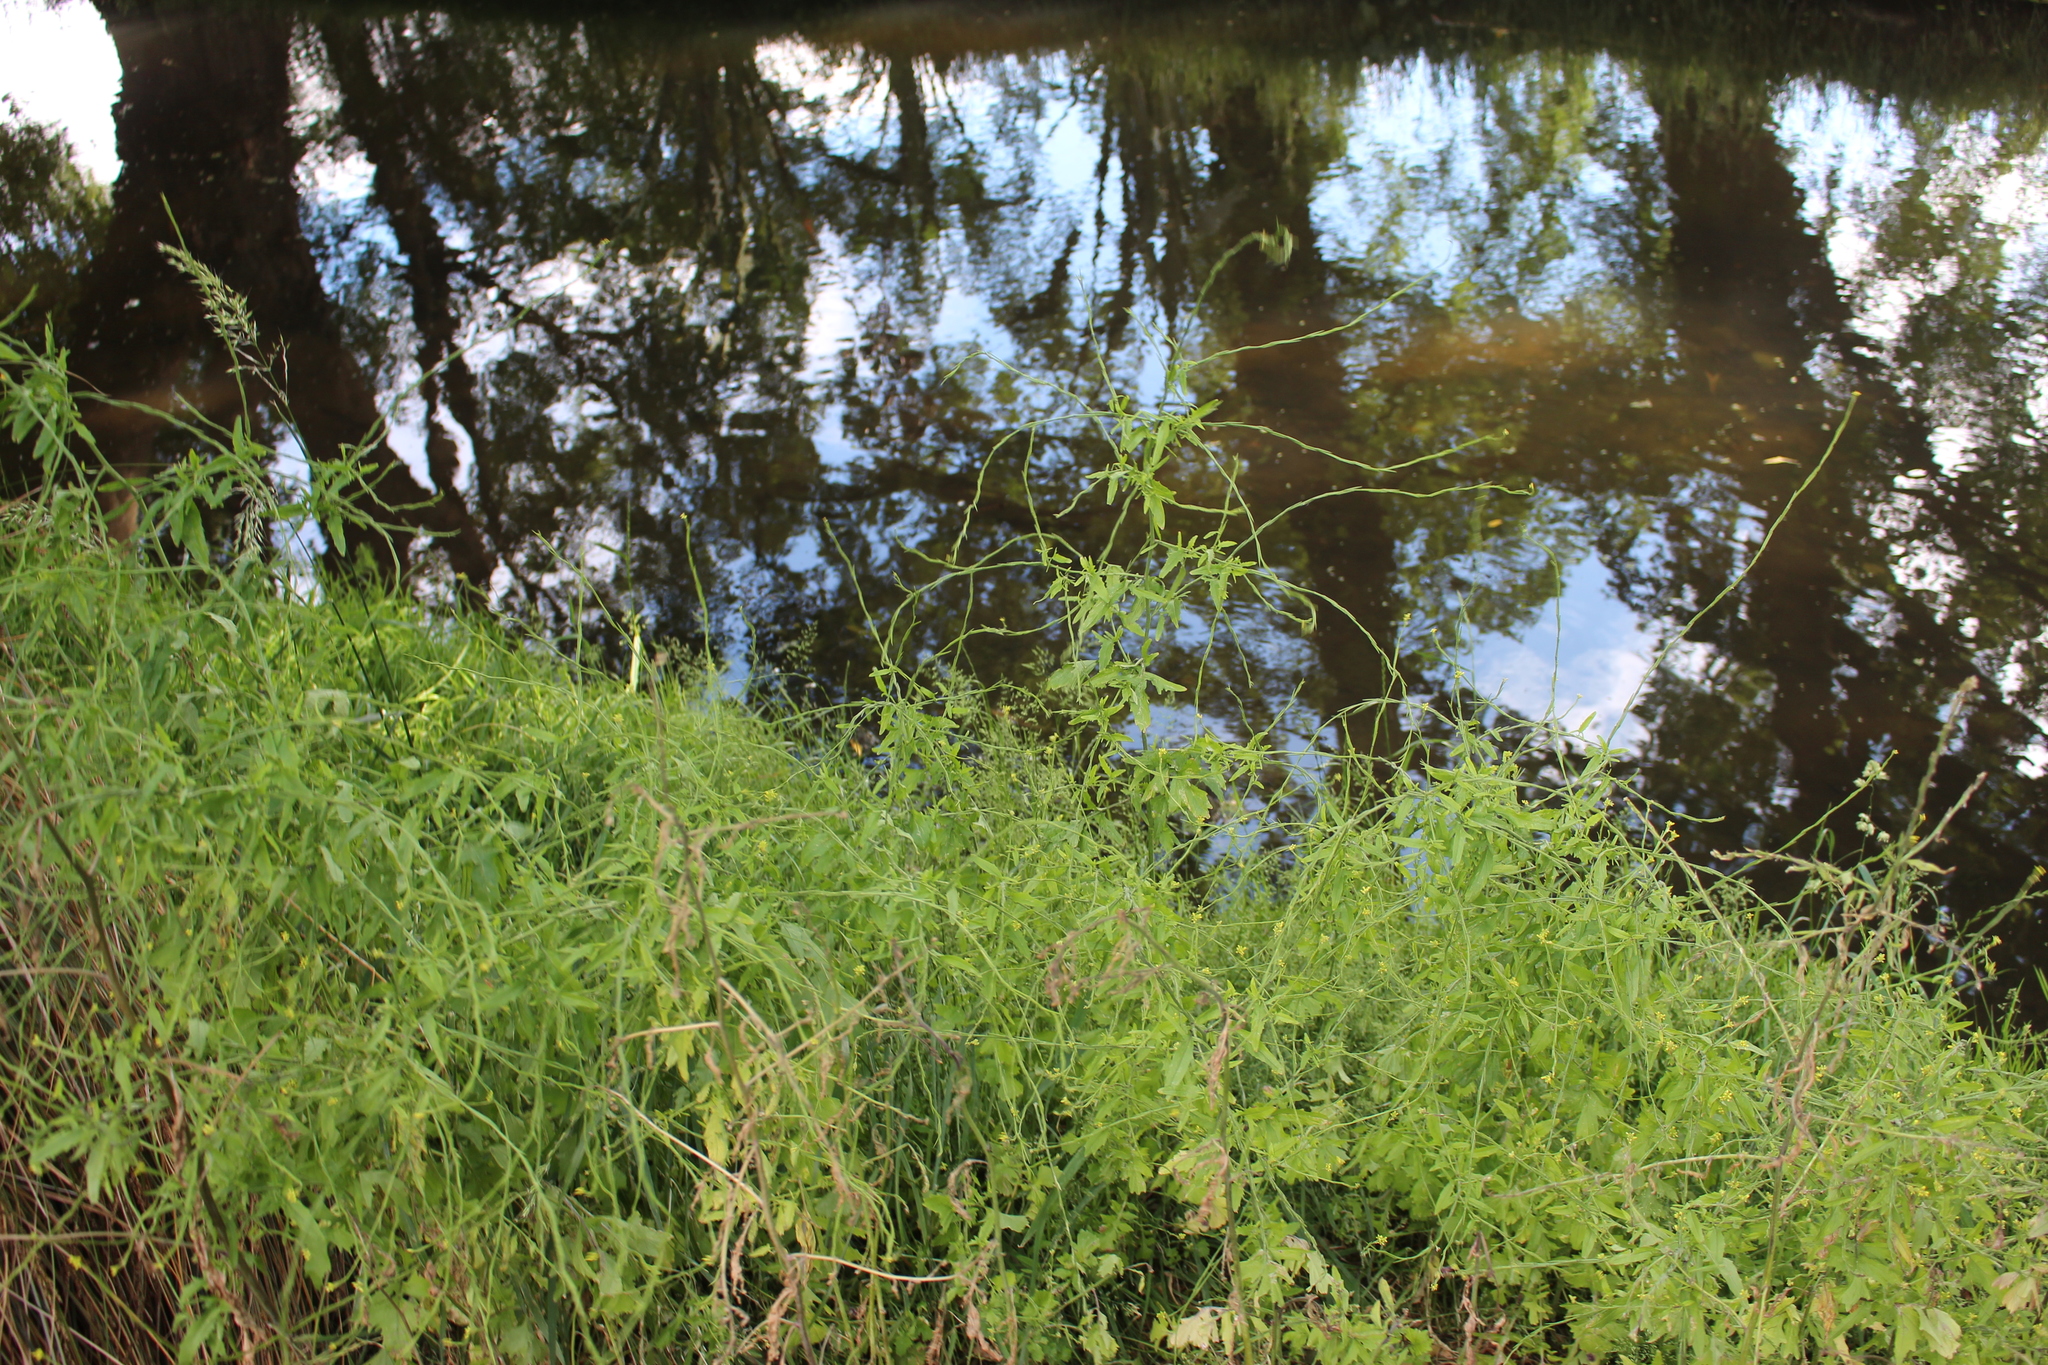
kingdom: Plantae
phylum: Tracheophyta
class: Magnoliopsida
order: Brassicales
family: Brassicaceae
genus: Sisymbrium
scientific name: Sisymbrium officinale
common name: Hedge mustard
